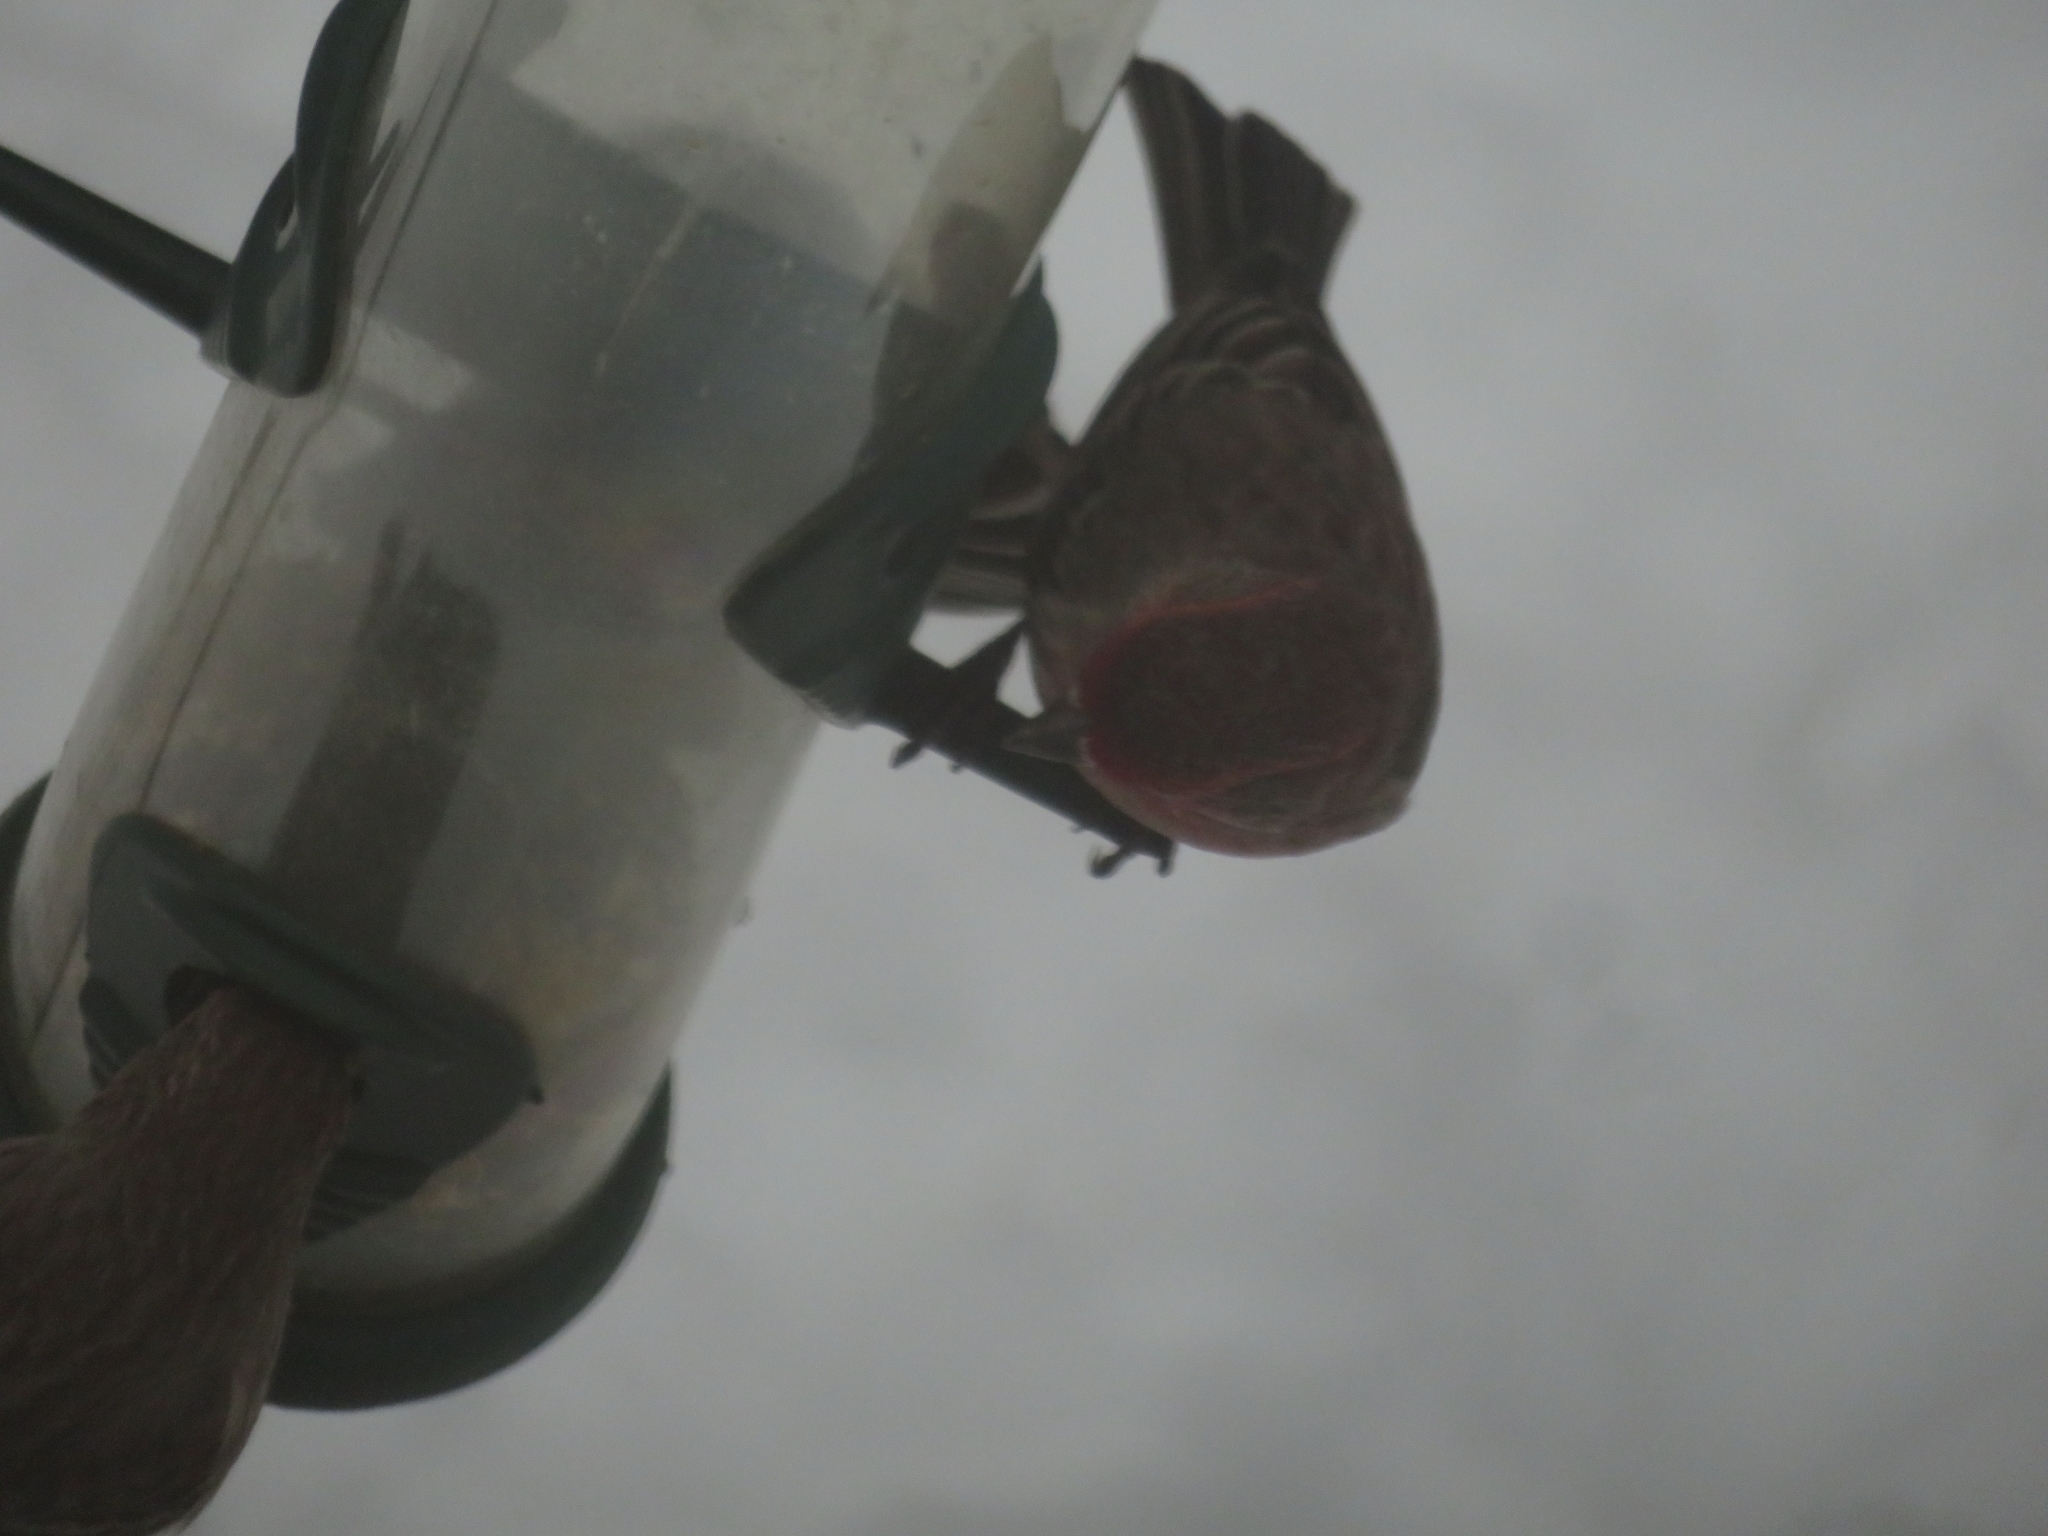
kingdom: Animalia
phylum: Chordata
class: Aves
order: Passeriformes
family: Fringillidae
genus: Haemorhous
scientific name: Haemorhous mexicanus
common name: House finch
